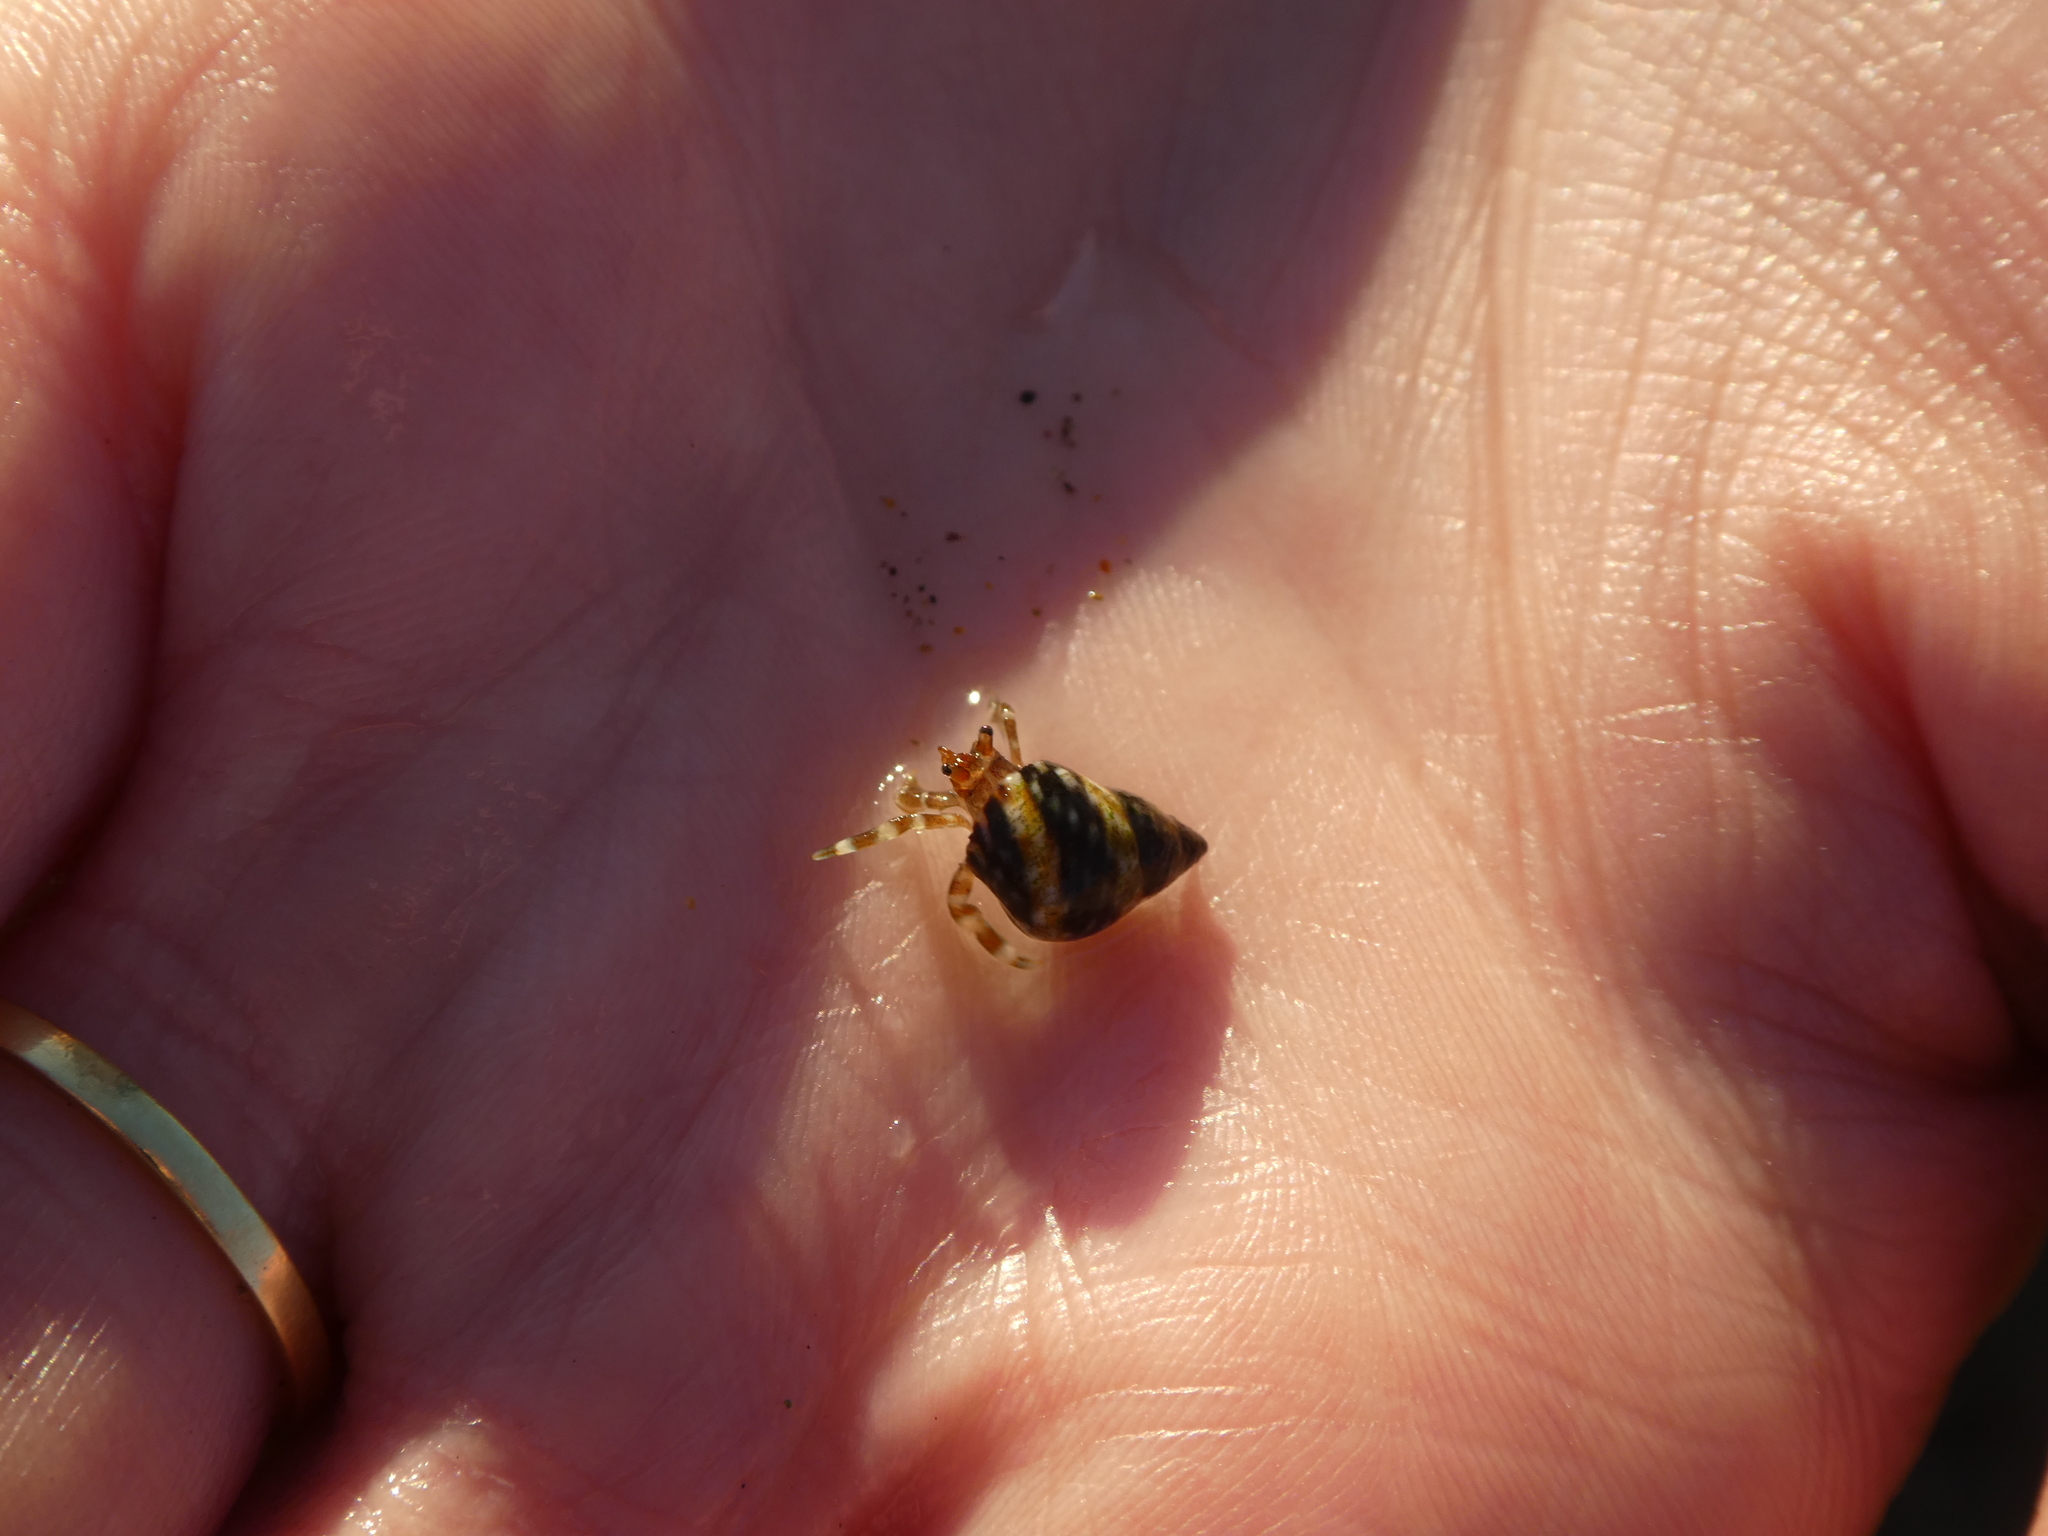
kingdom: Animalia
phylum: Mollusca
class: Gastropoda
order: Littorinimorpha
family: Littorinidae
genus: Littorina
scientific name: Littorina scutulata
